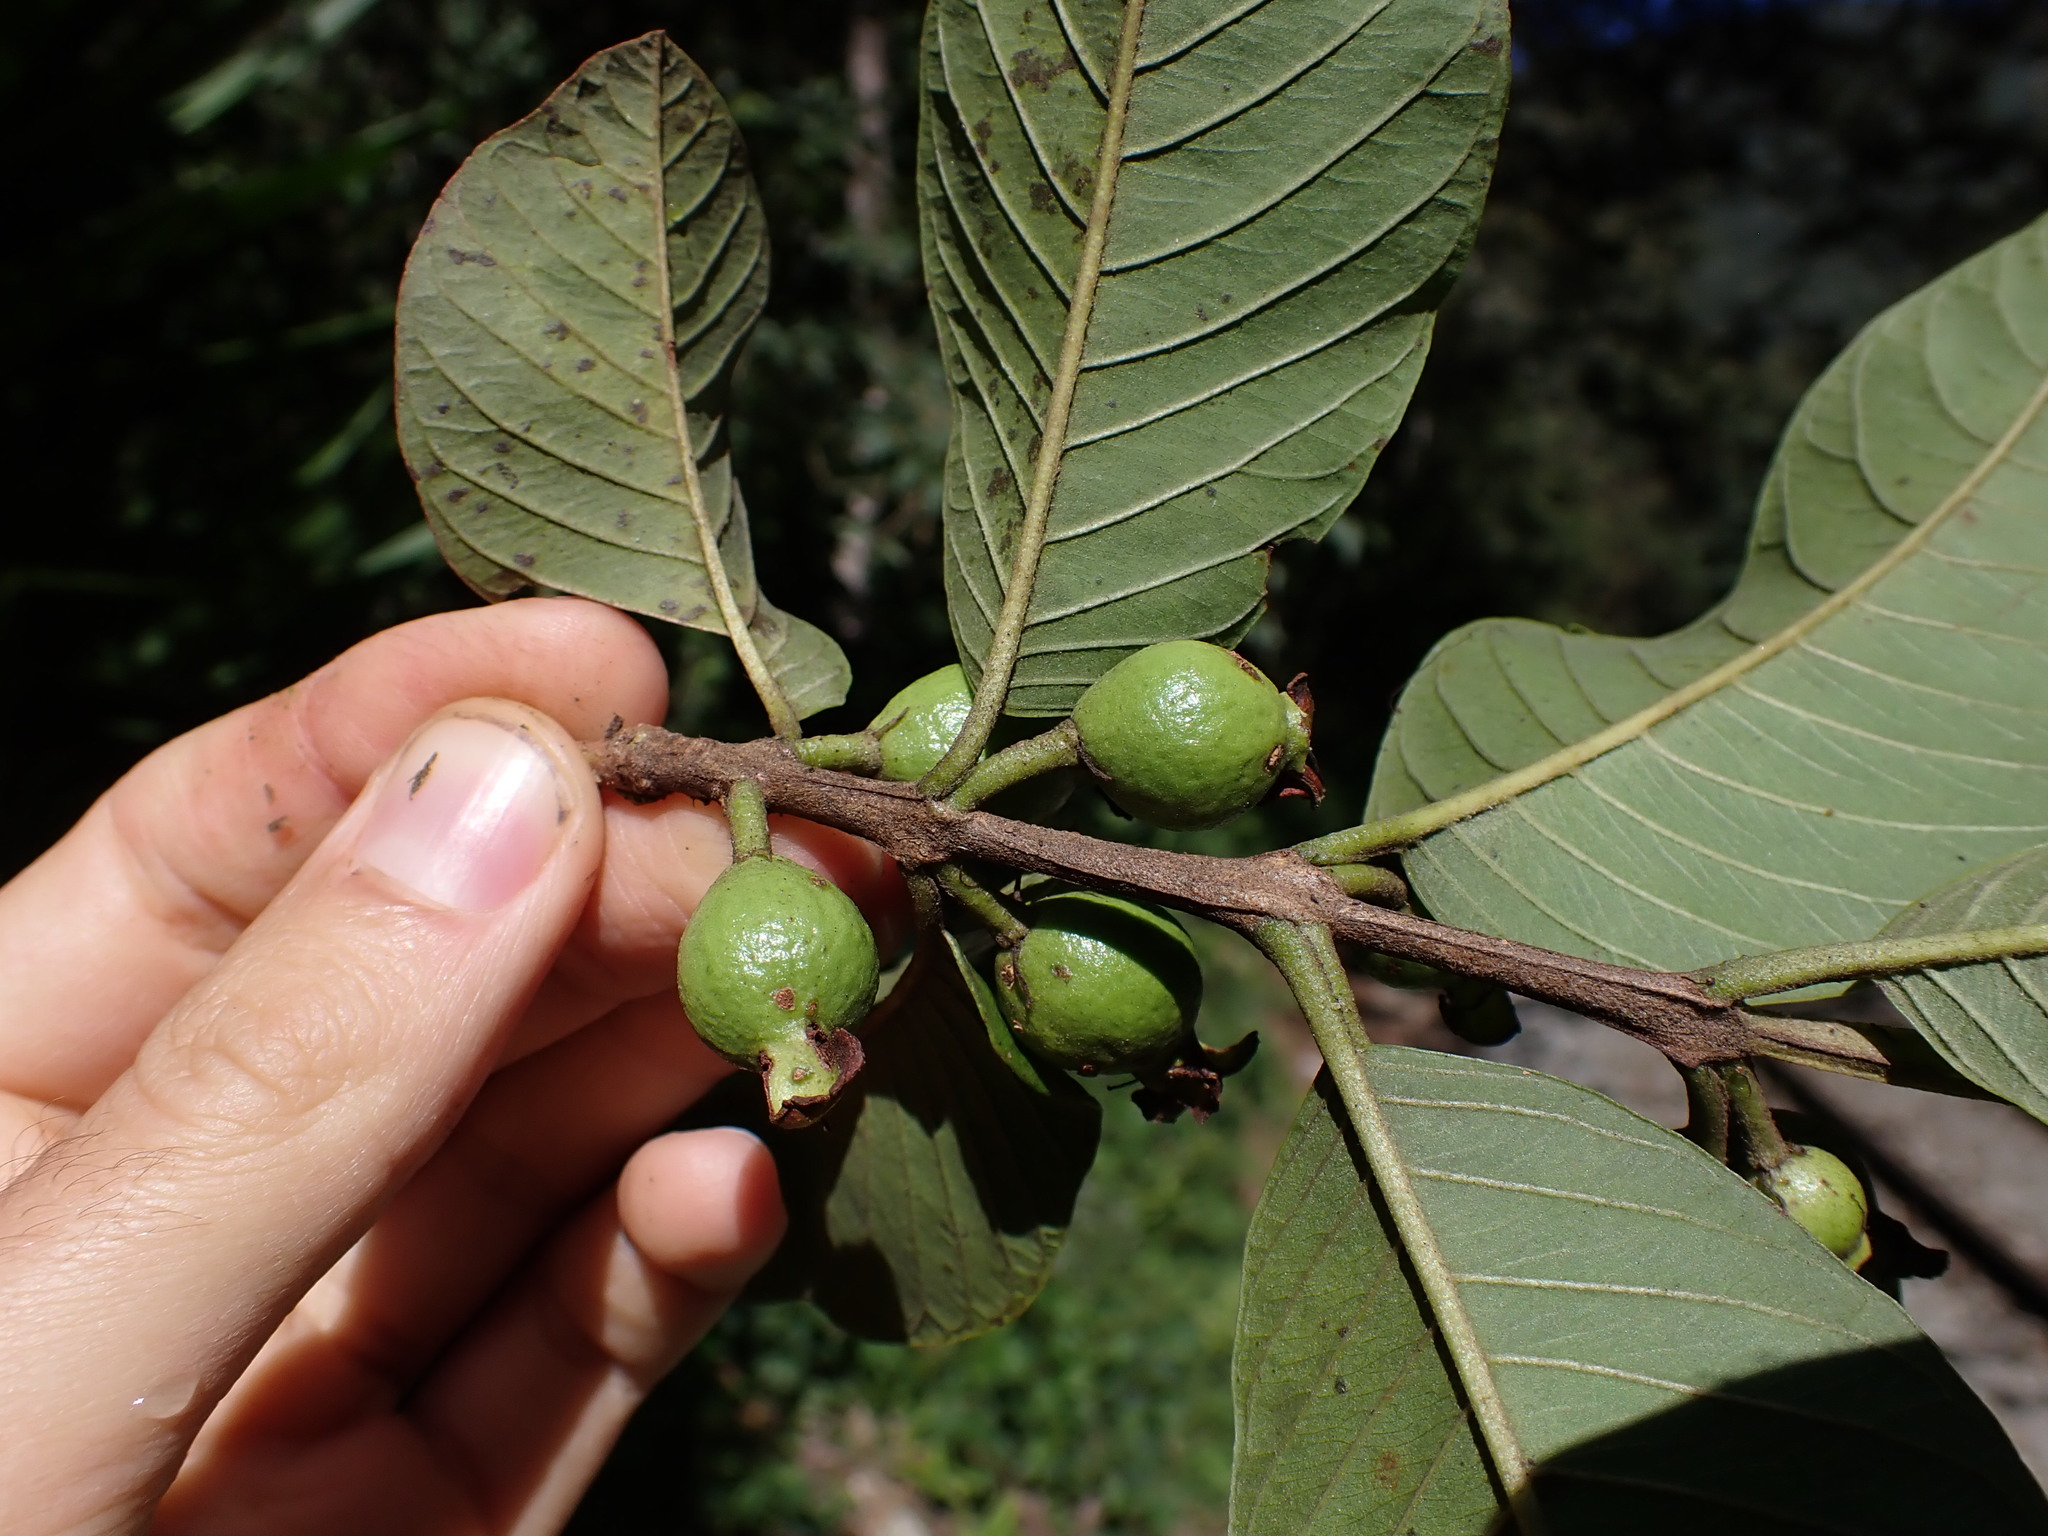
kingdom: Plantae
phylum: Tracheophyta
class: Magnoliopsida
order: Myrtales
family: Myrtaceae
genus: Psidium
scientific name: Psidium guajava
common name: Guava
